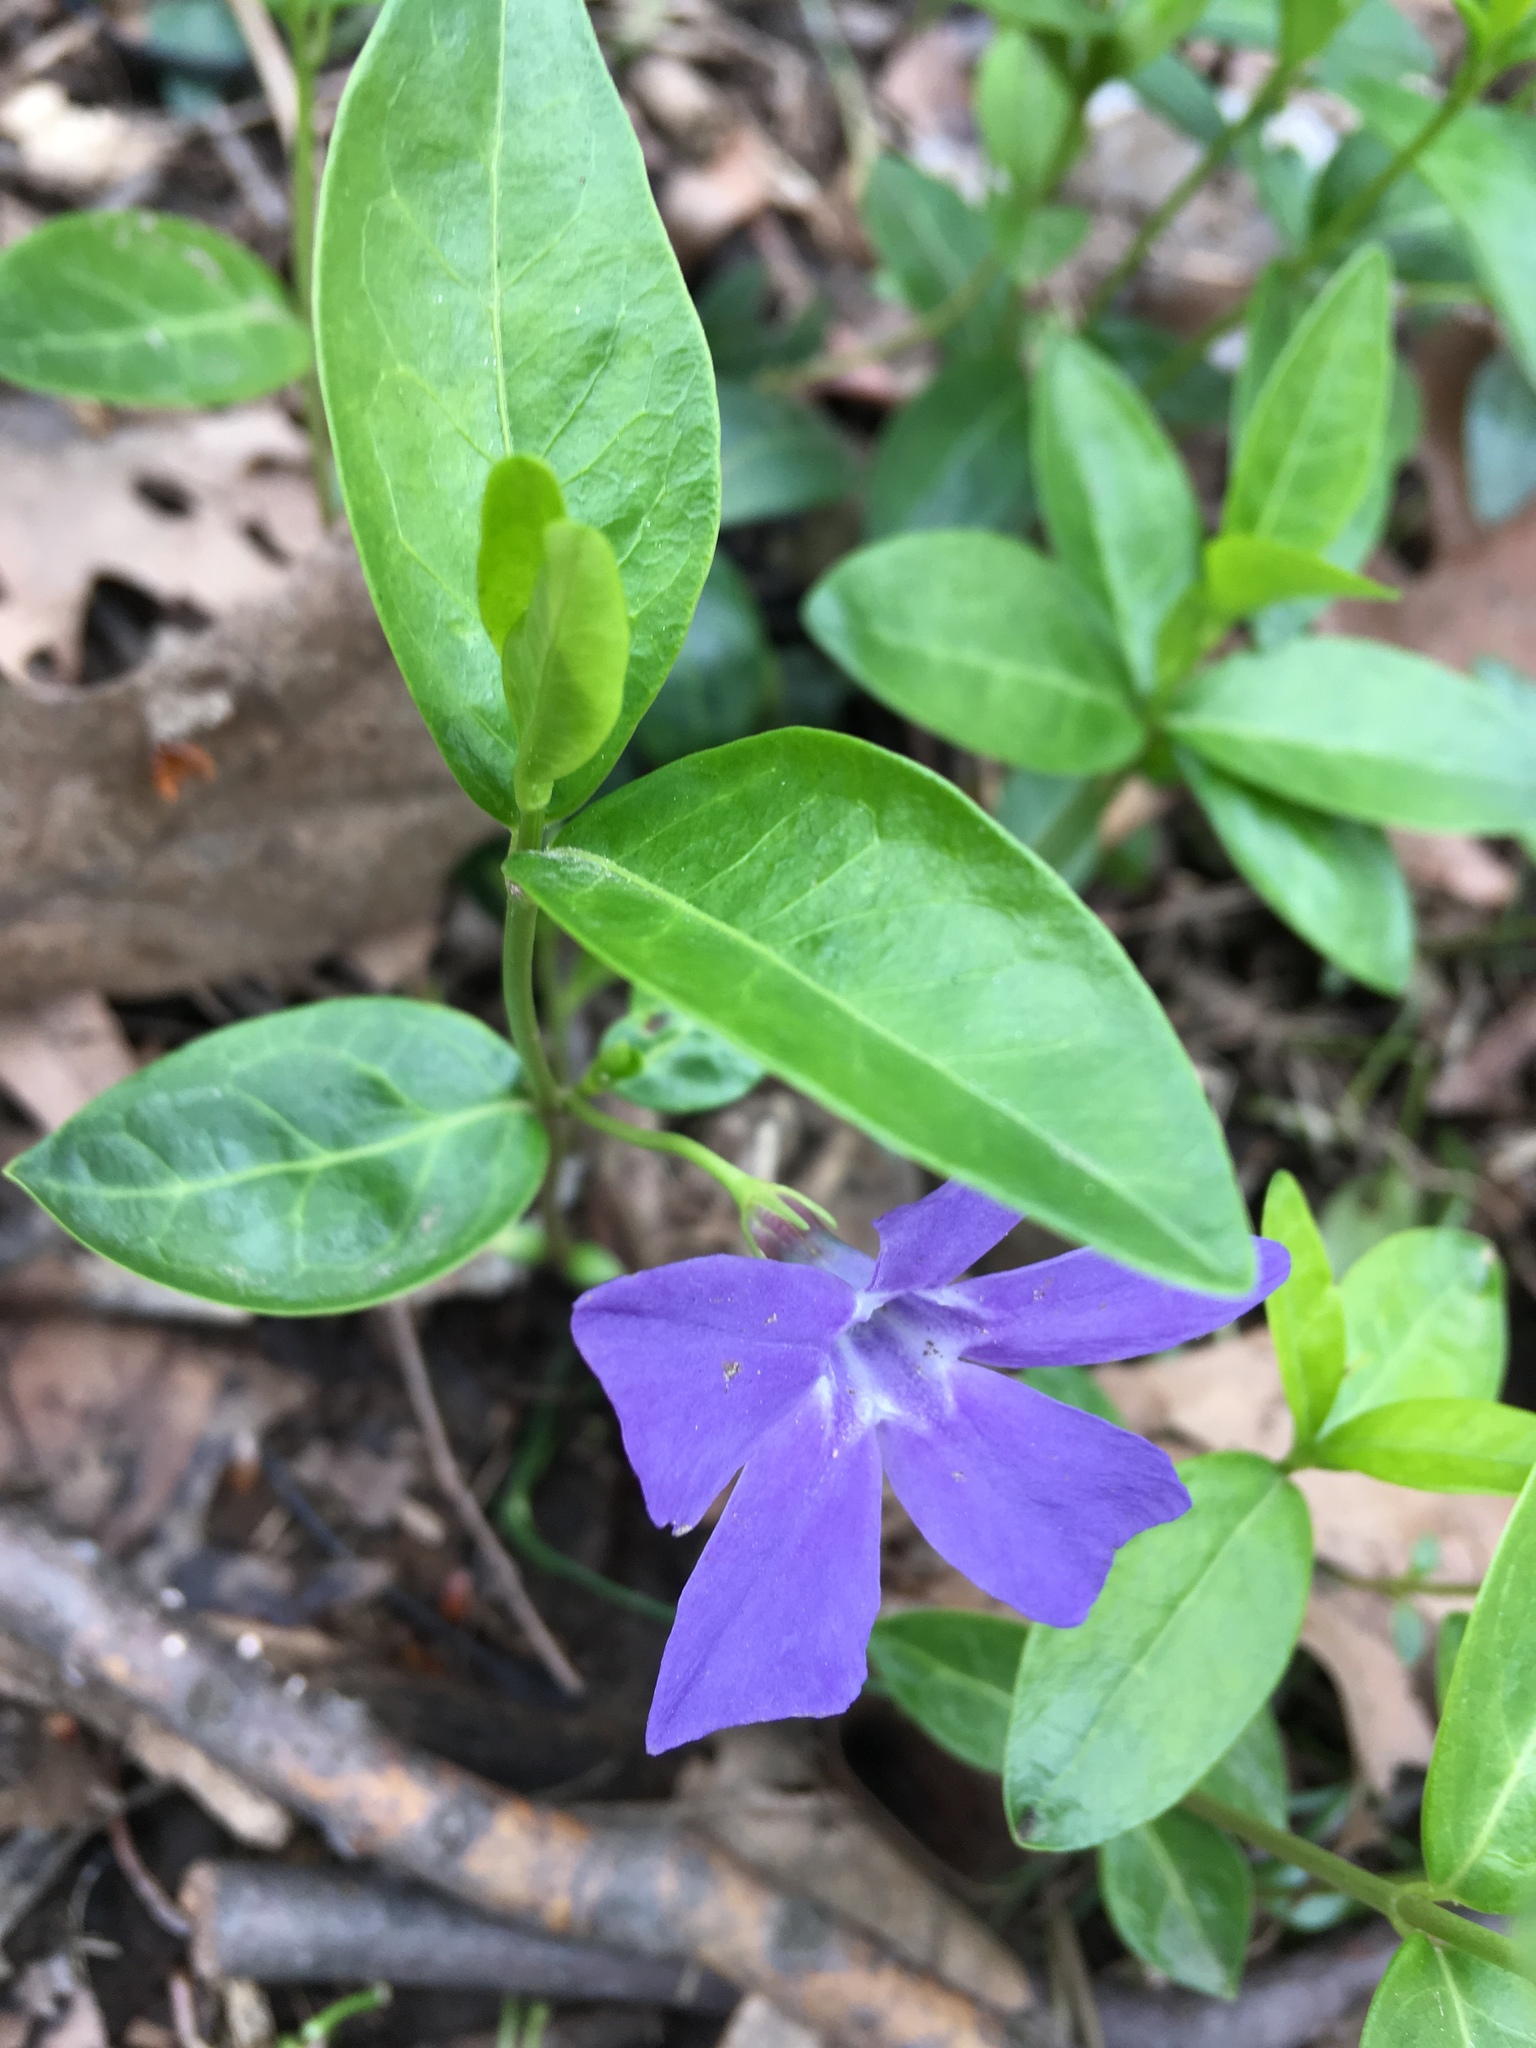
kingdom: Plantae
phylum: Tracheophyta
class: Magnoliopsida
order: Gentianales
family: Apocynaceae
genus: Vinca
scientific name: Vinca minor
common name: Lesser periwinkle
